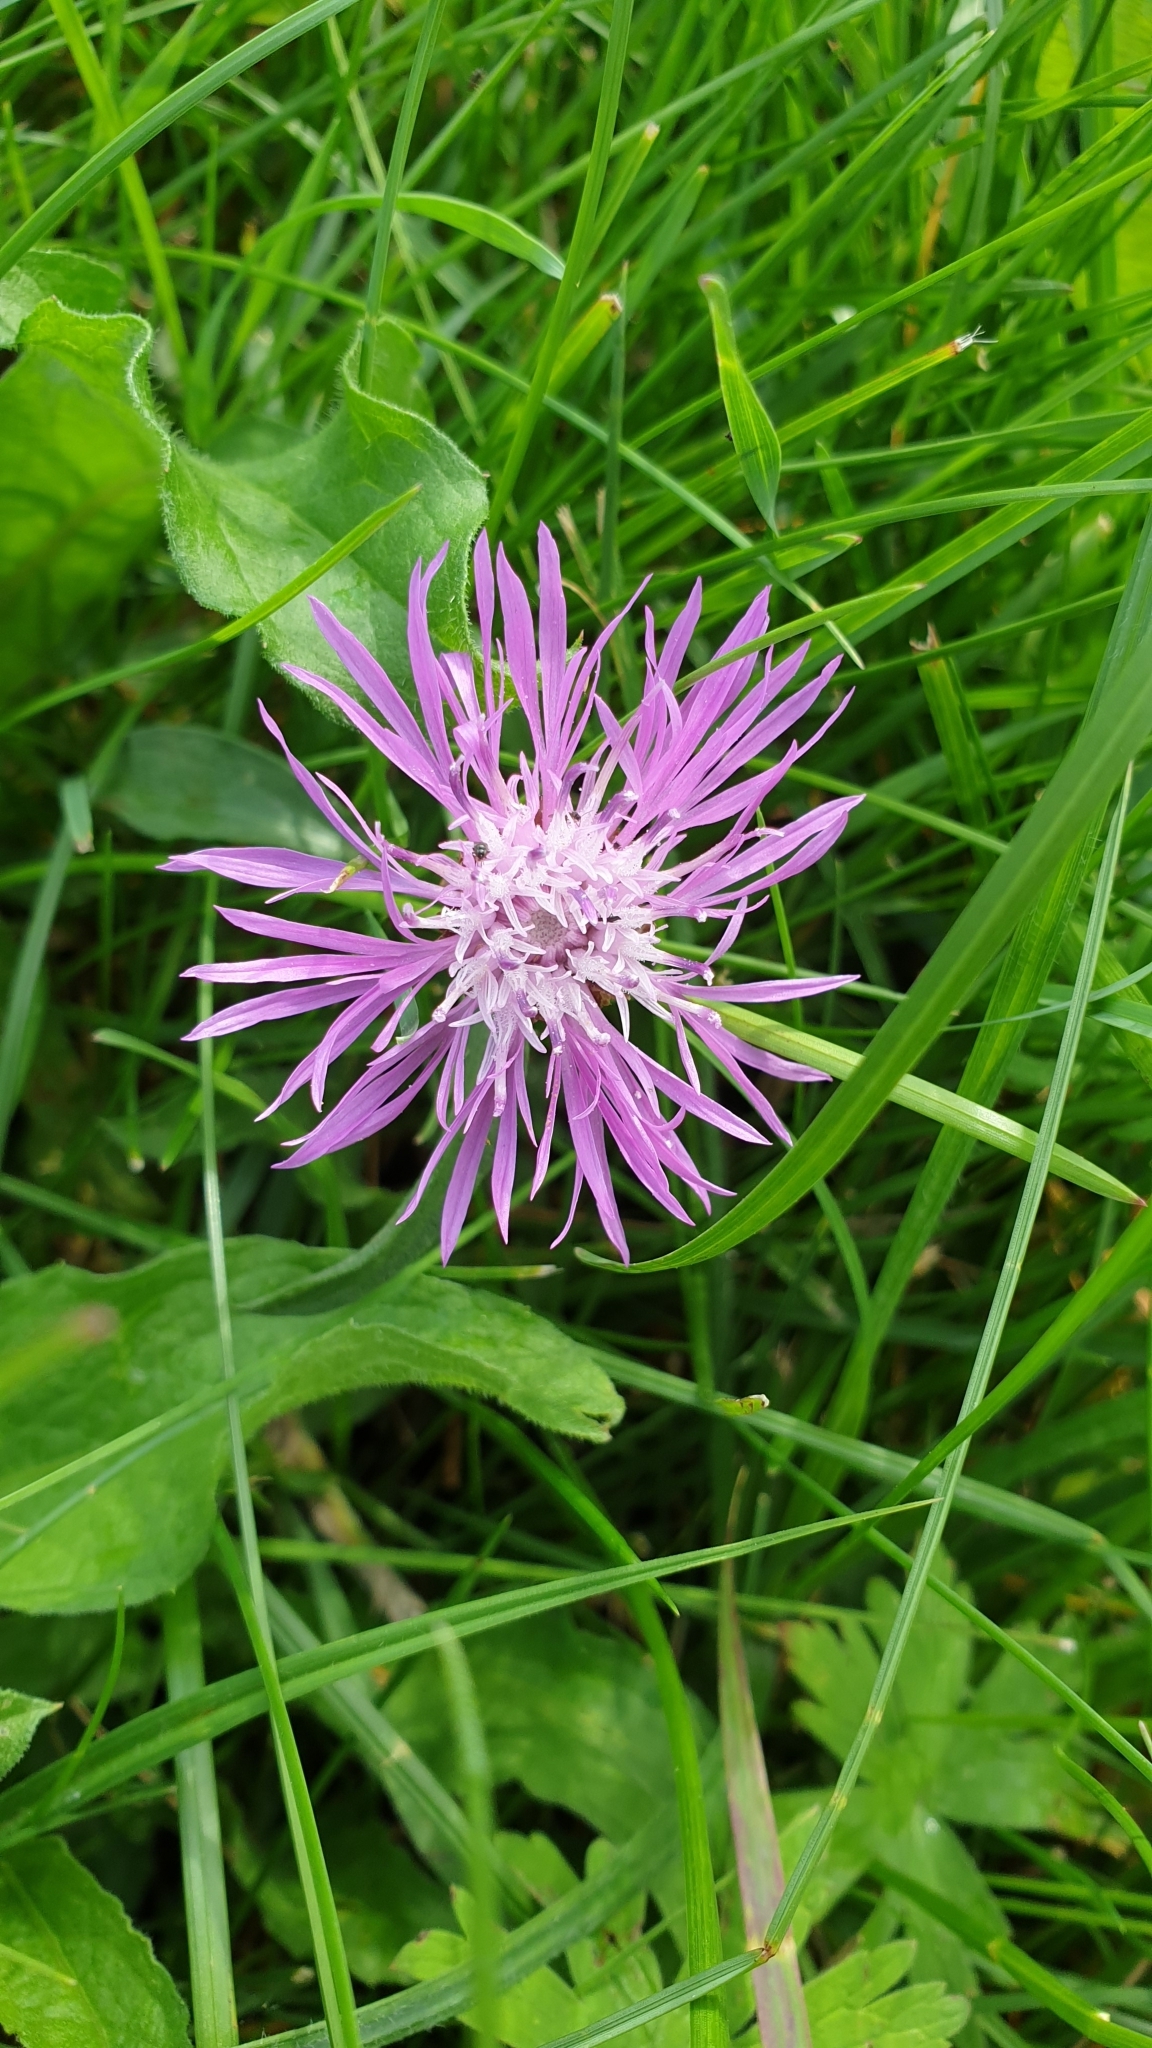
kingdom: Plantae
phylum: Tracheophyta
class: Magnoliopsida
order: Asterales
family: Asteraceae
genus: Centaurea
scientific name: Centaurea jacea
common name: Brown knapweed
